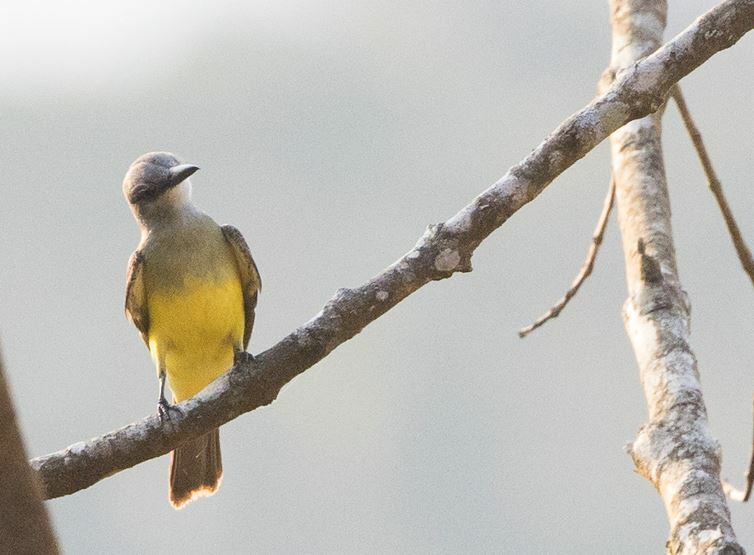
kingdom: Animalia
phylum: Chordata
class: Aves
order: Passeriformes
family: Tyrannidae
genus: Tyrannus
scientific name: Tyrannus melancholicus
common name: Tropical kingbird
